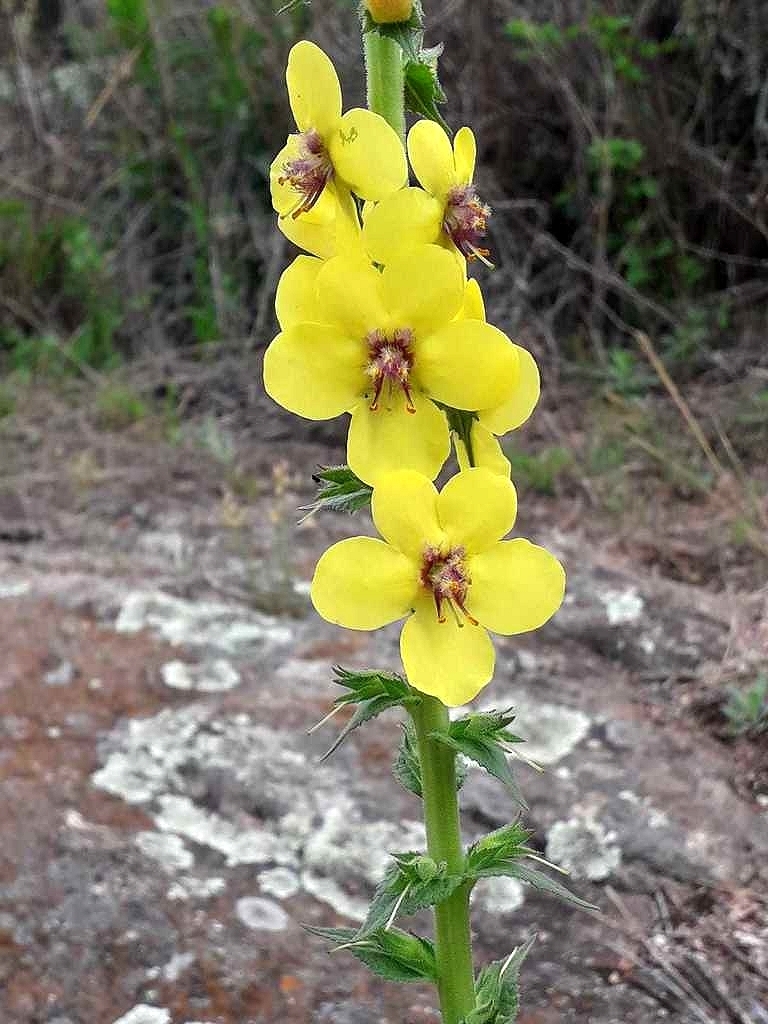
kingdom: Plantae
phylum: Tracheophyta
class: Magnoliopsida
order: Lamiales
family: Scrophulariaceae
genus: Verbascum
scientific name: Verbascum virgatum
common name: Twiggy mullein
